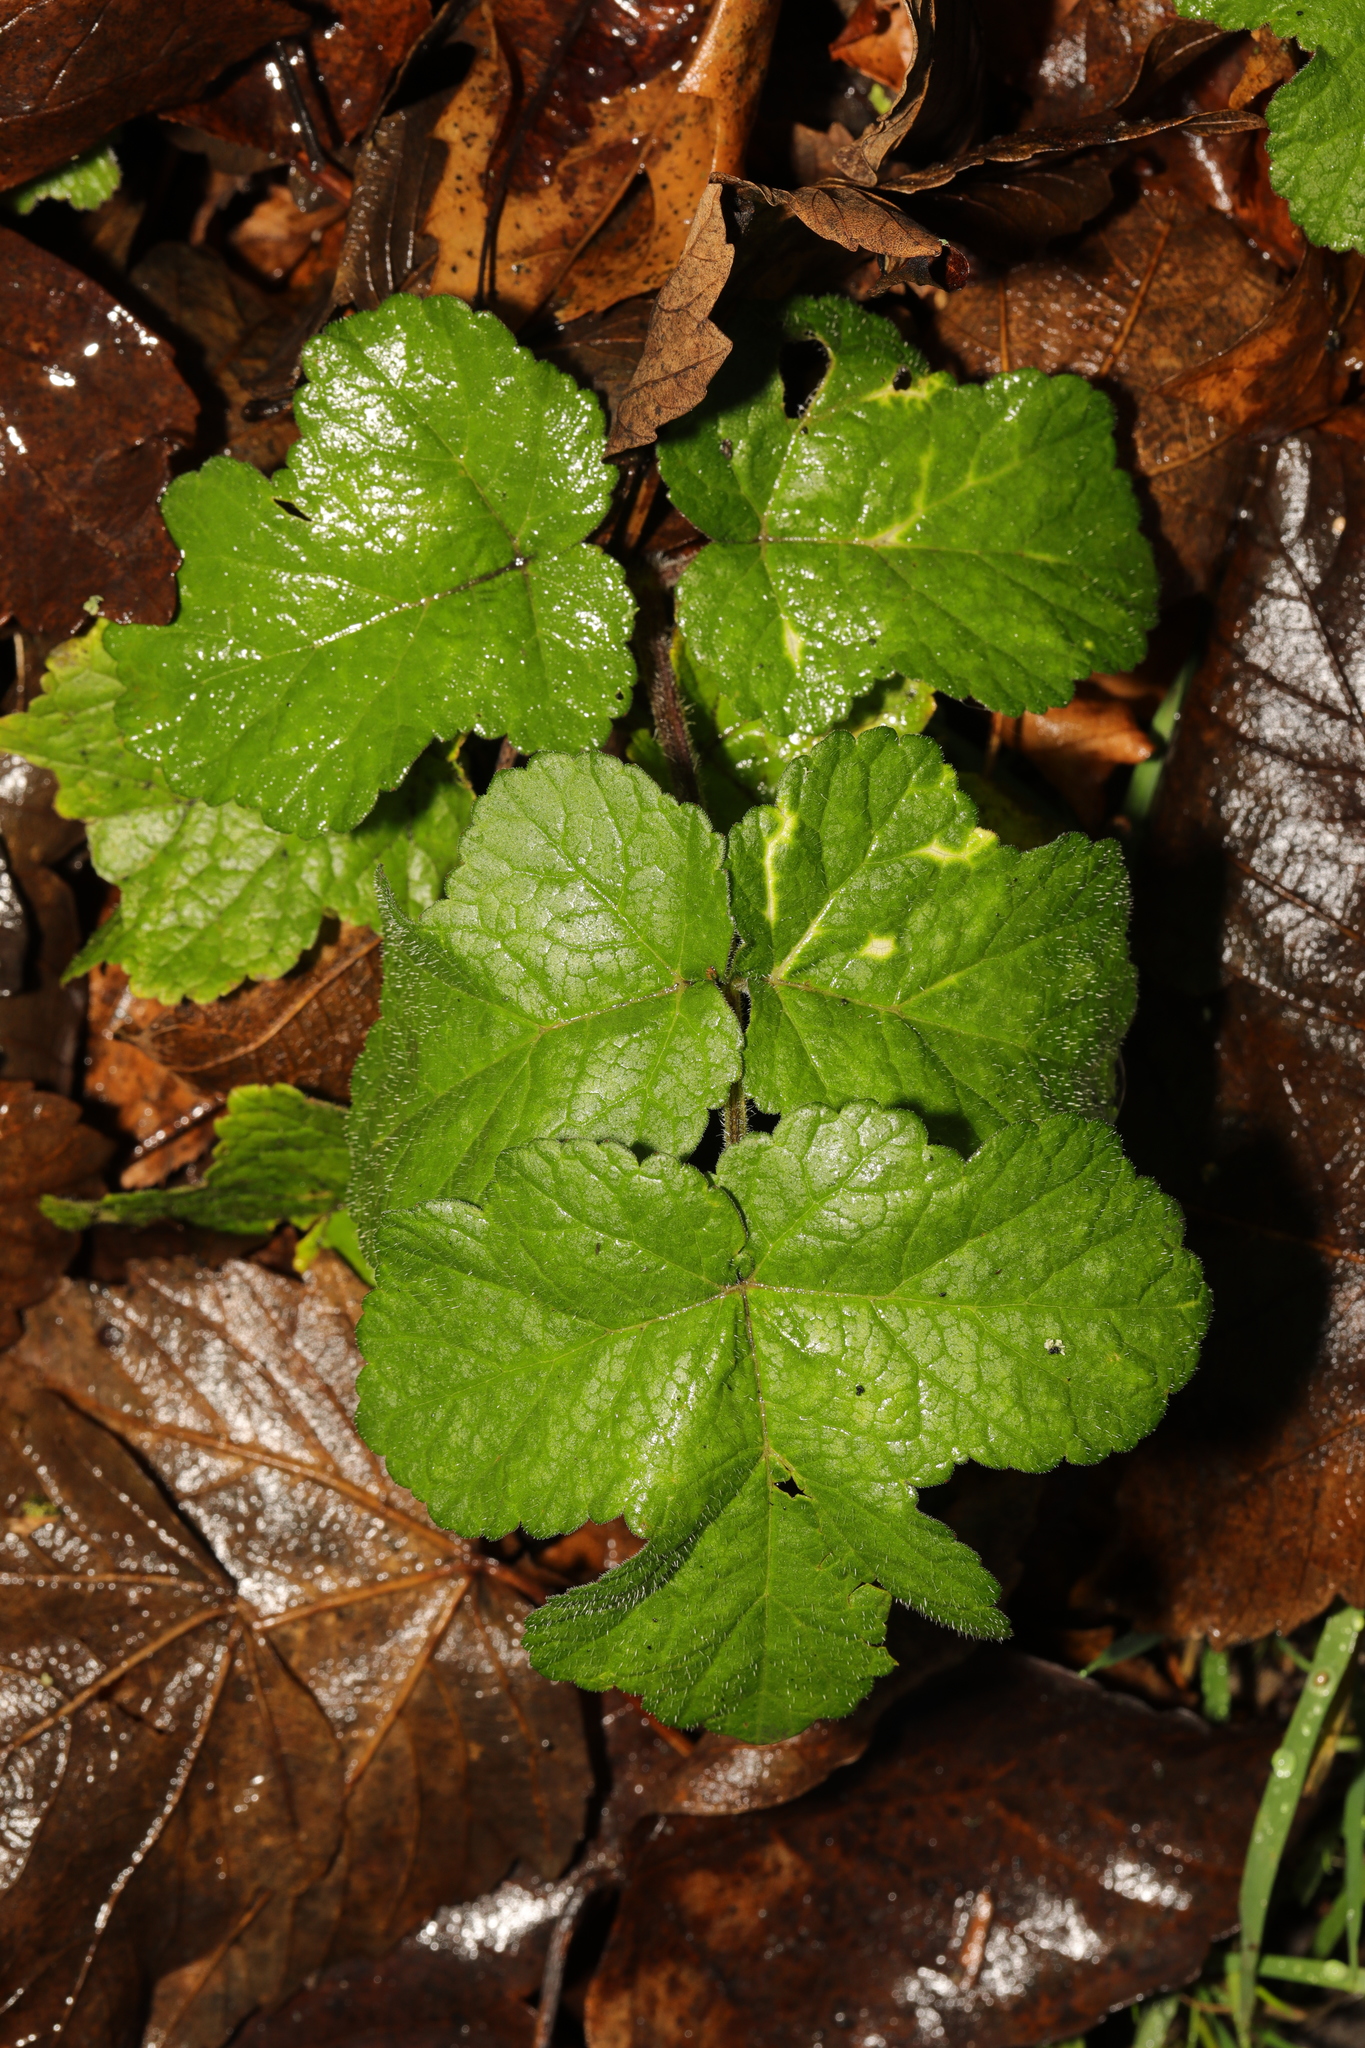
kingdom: Plantae
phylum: Tracheophyta
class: Magnoliopsida
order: Apiales
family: Apiaceae
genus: Heracleum
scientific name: Heracleum sphondylium
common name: Hogweed
